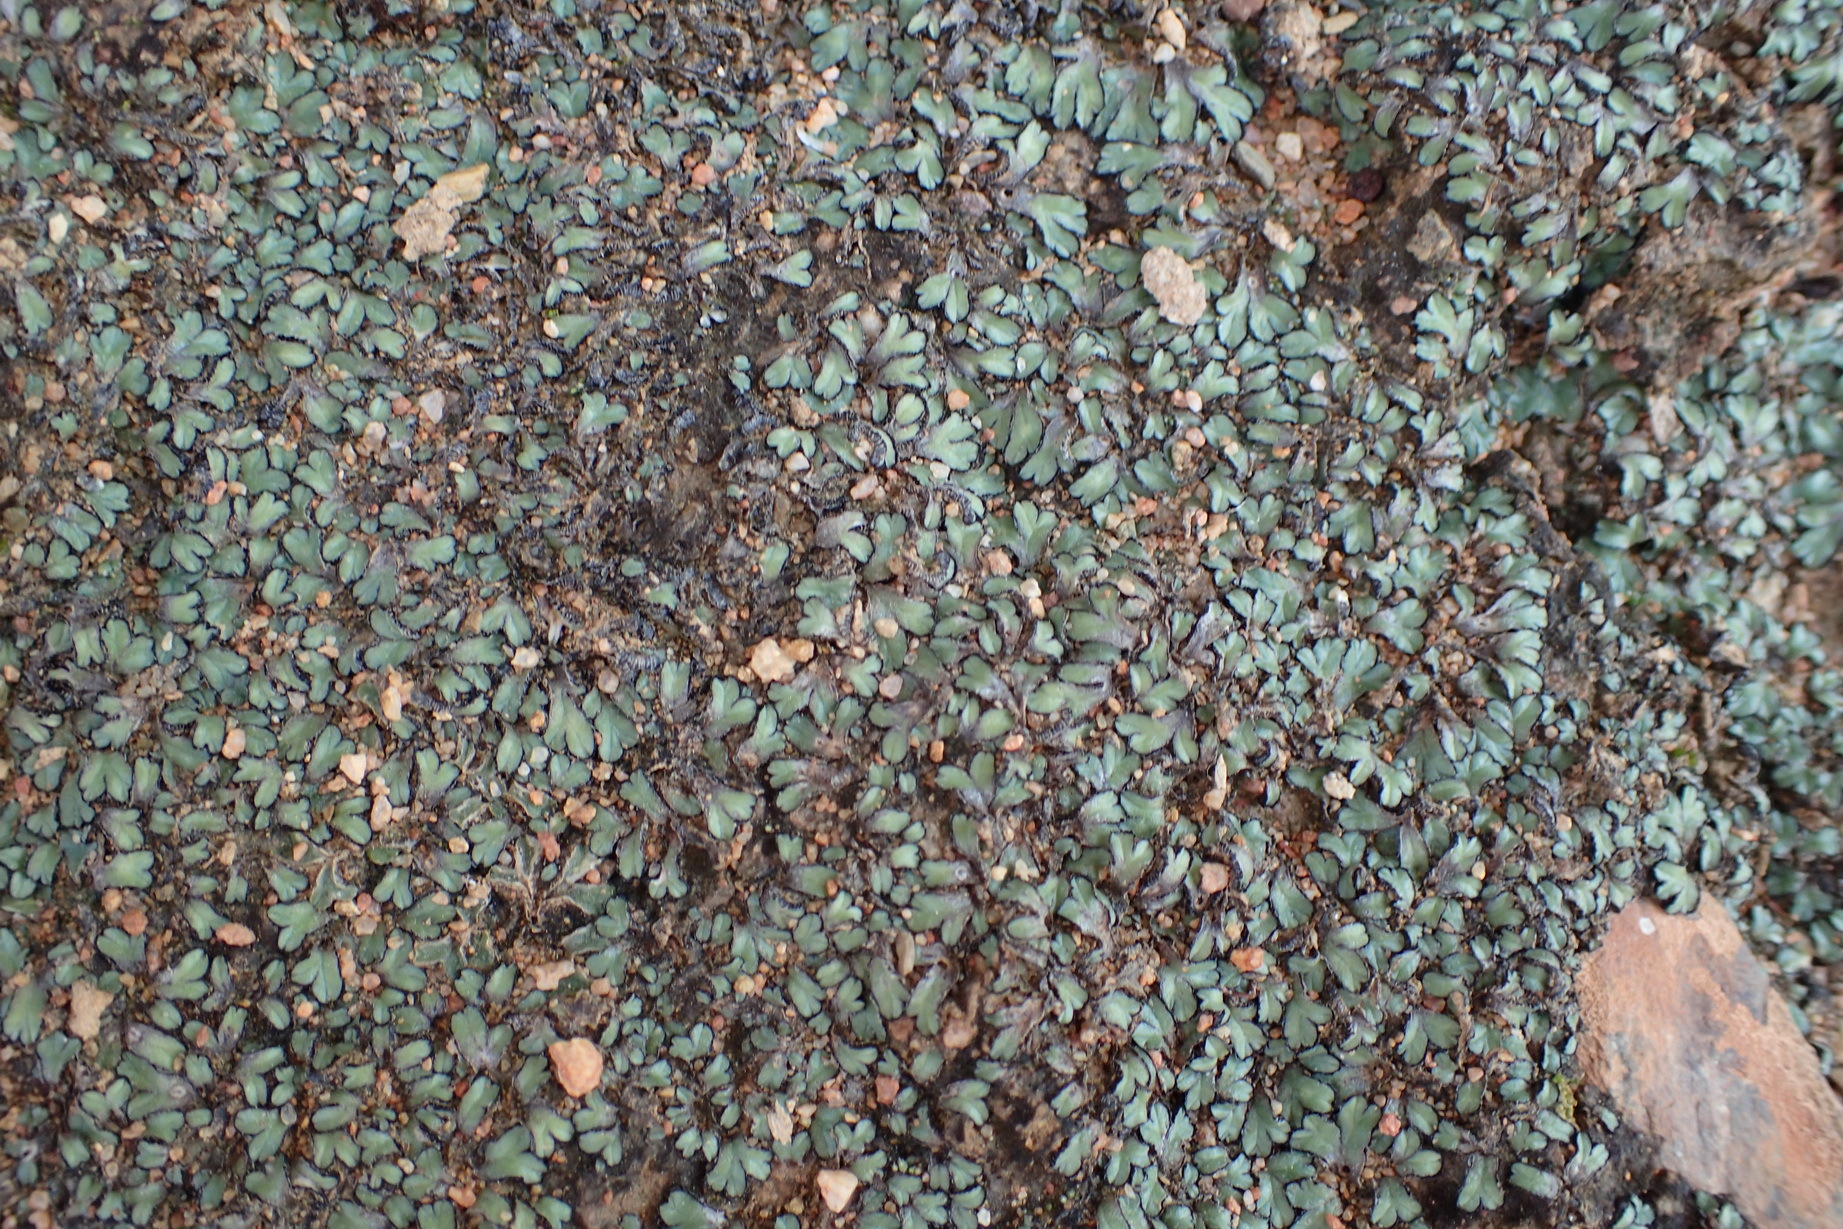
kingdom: Plantae
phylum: Marchantiophyta
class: Marchantiopsida
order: Marchantiales
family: Aytoniaceae
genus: Plagiochasma
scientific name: Plagiochasma rupestre
